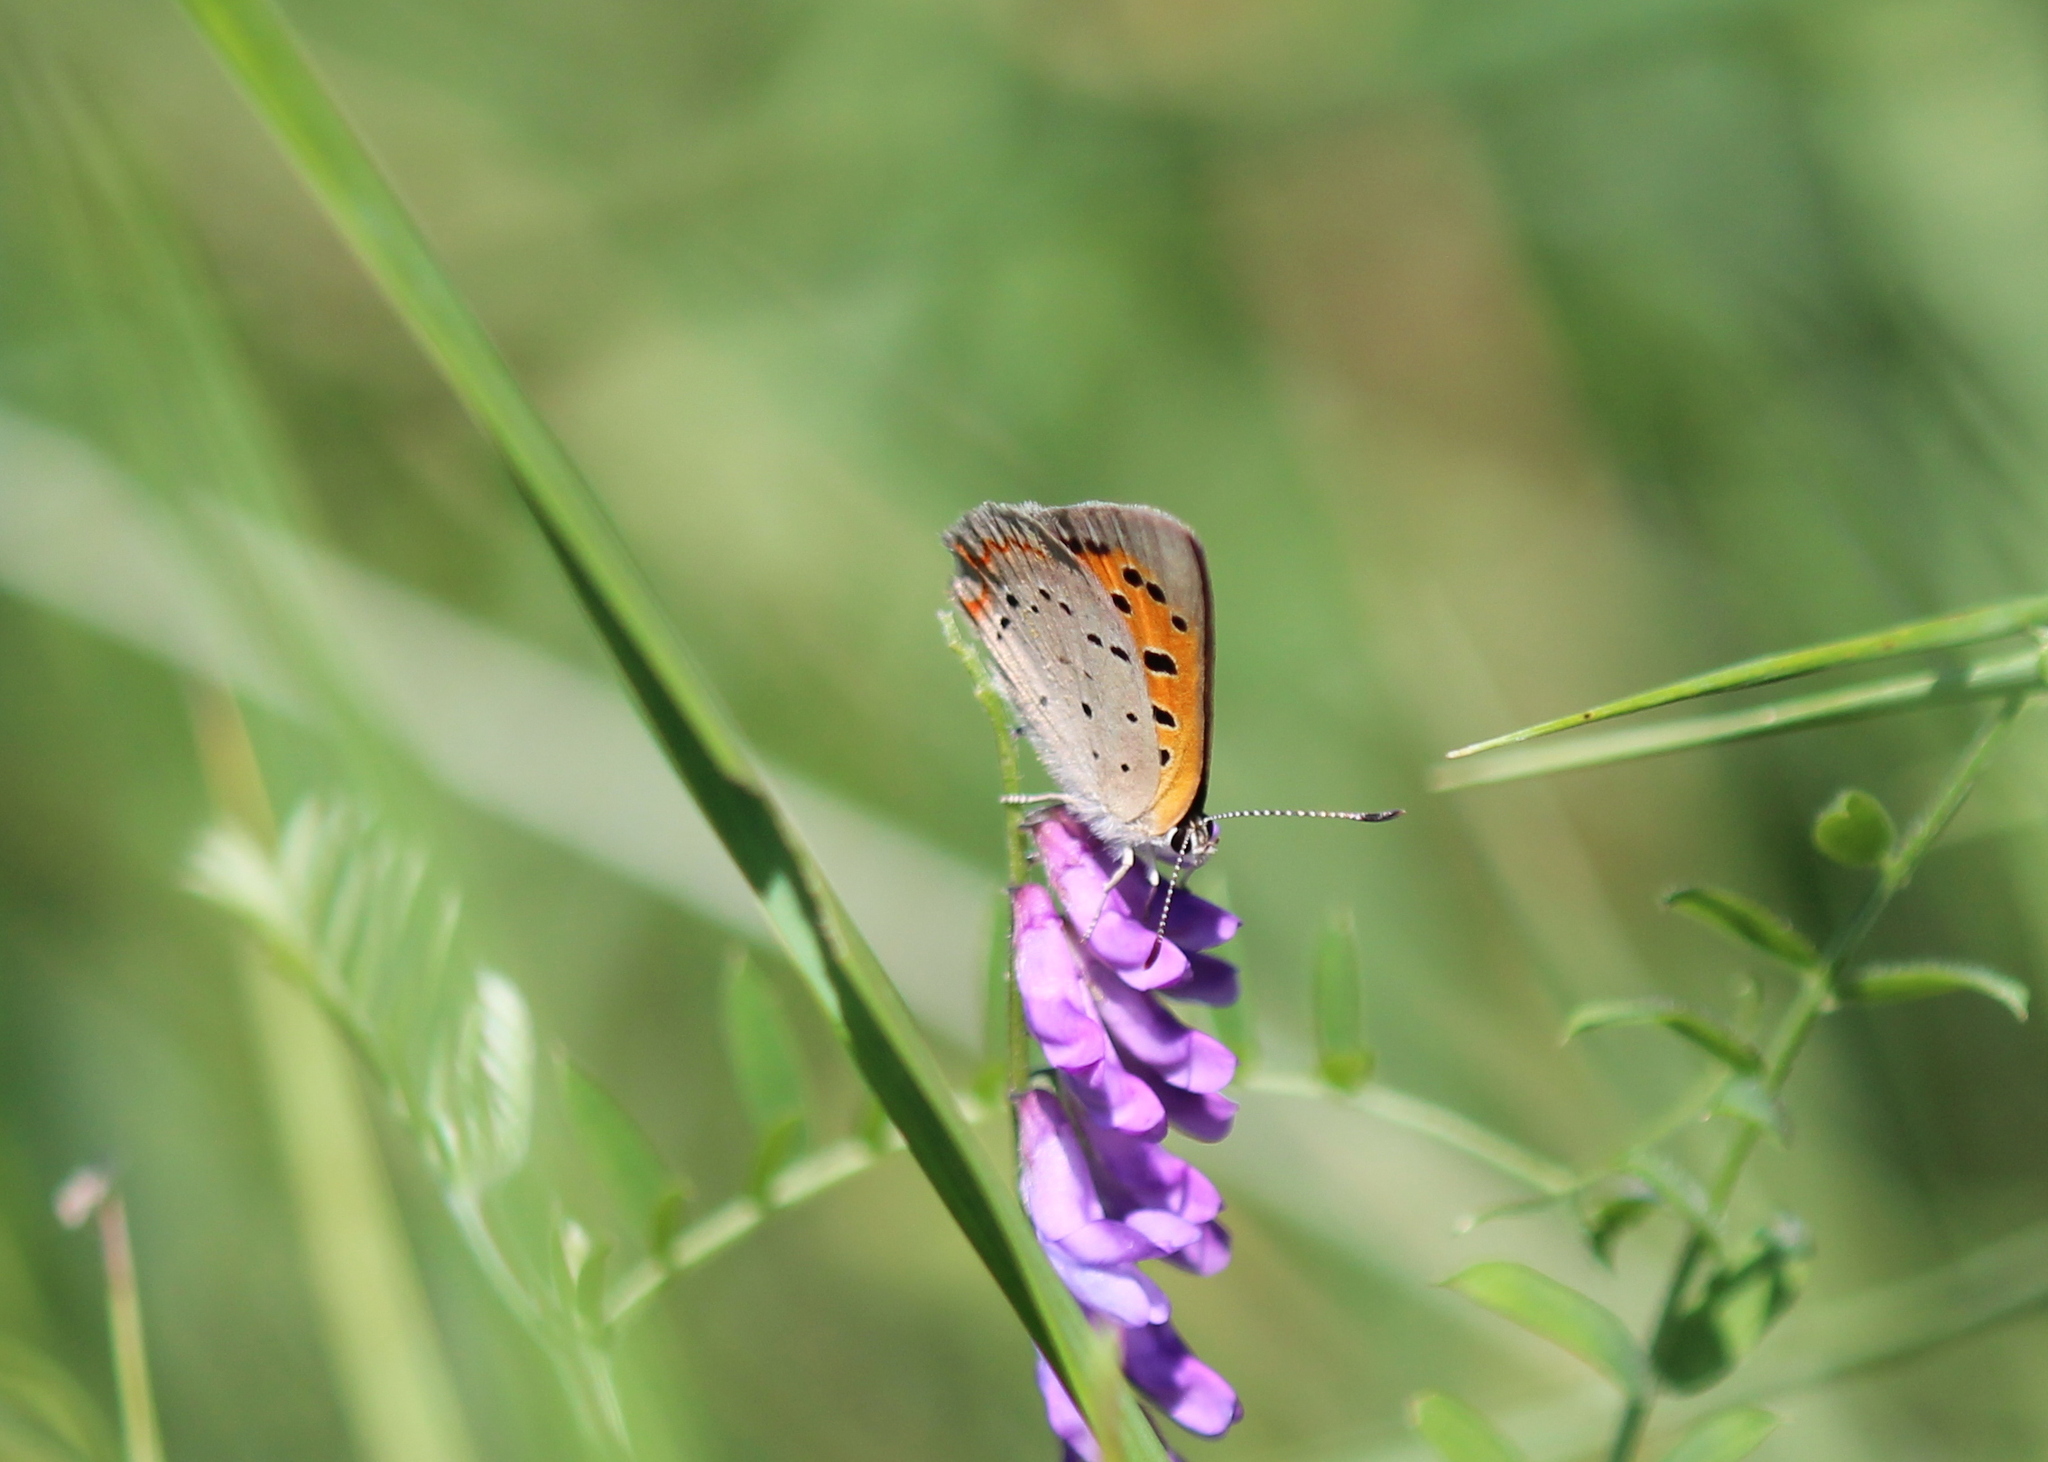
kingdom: Animalia
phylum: Arthropoda
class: Insecta
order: Lepidoptera
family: Lycaenidae
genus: Lycaena
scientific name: Lycaena hypophlaeas
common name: American copper
